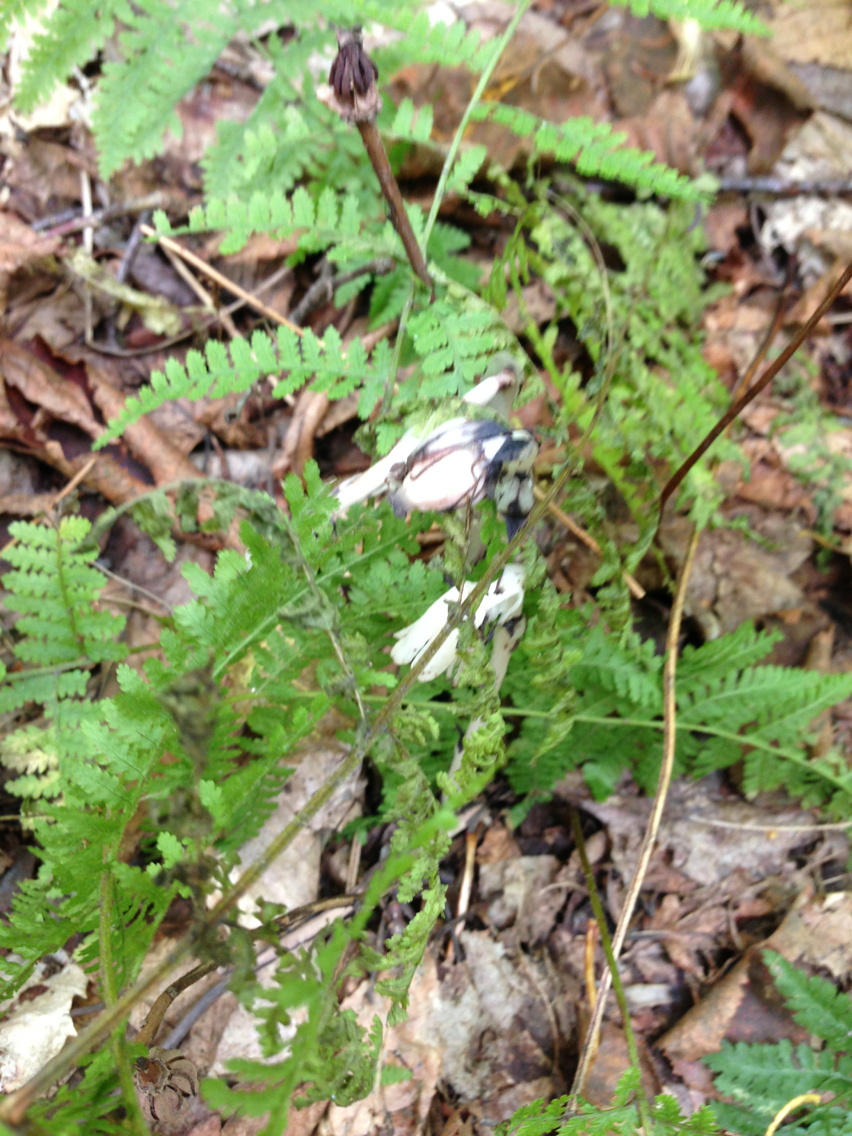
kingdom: Plantae
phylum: Tracheophyta
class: Magnoliopsida
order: Ericales
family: Ericaceae
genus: Monotropa
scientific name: Monotropa uniflora
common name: Convulsion root
